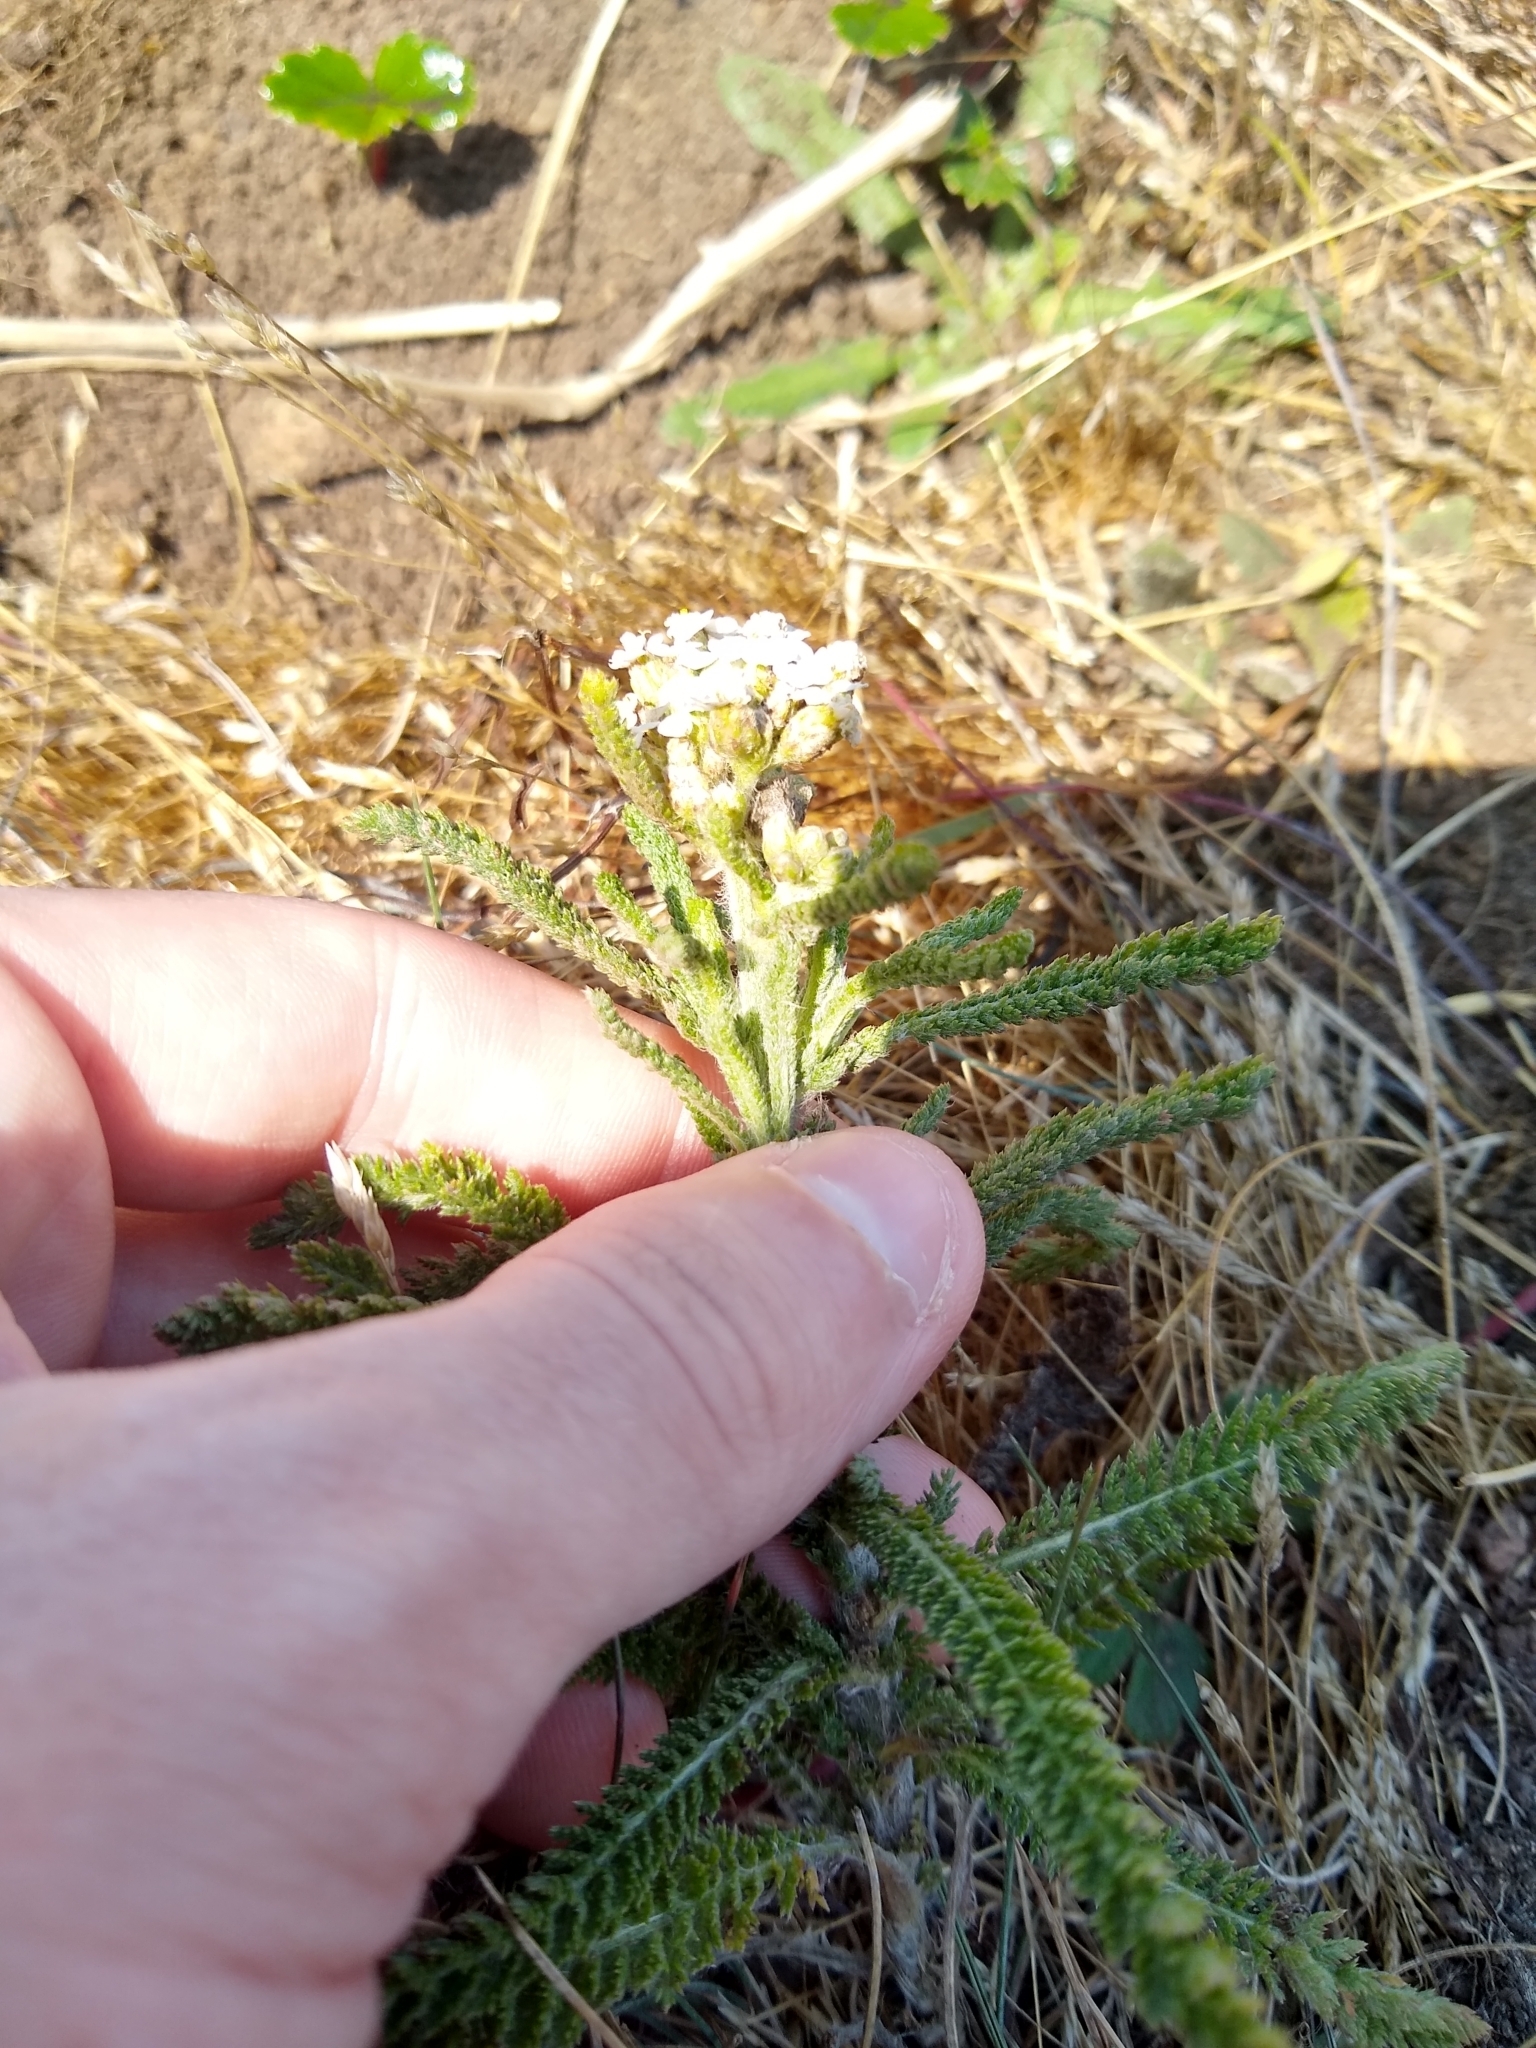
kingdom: Plantae
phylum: Tracheophyta
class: Magnoliopsida
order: Asterales
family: Asteraceae
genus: Achillea
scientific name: Achillea millefolium
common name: Yarrow
